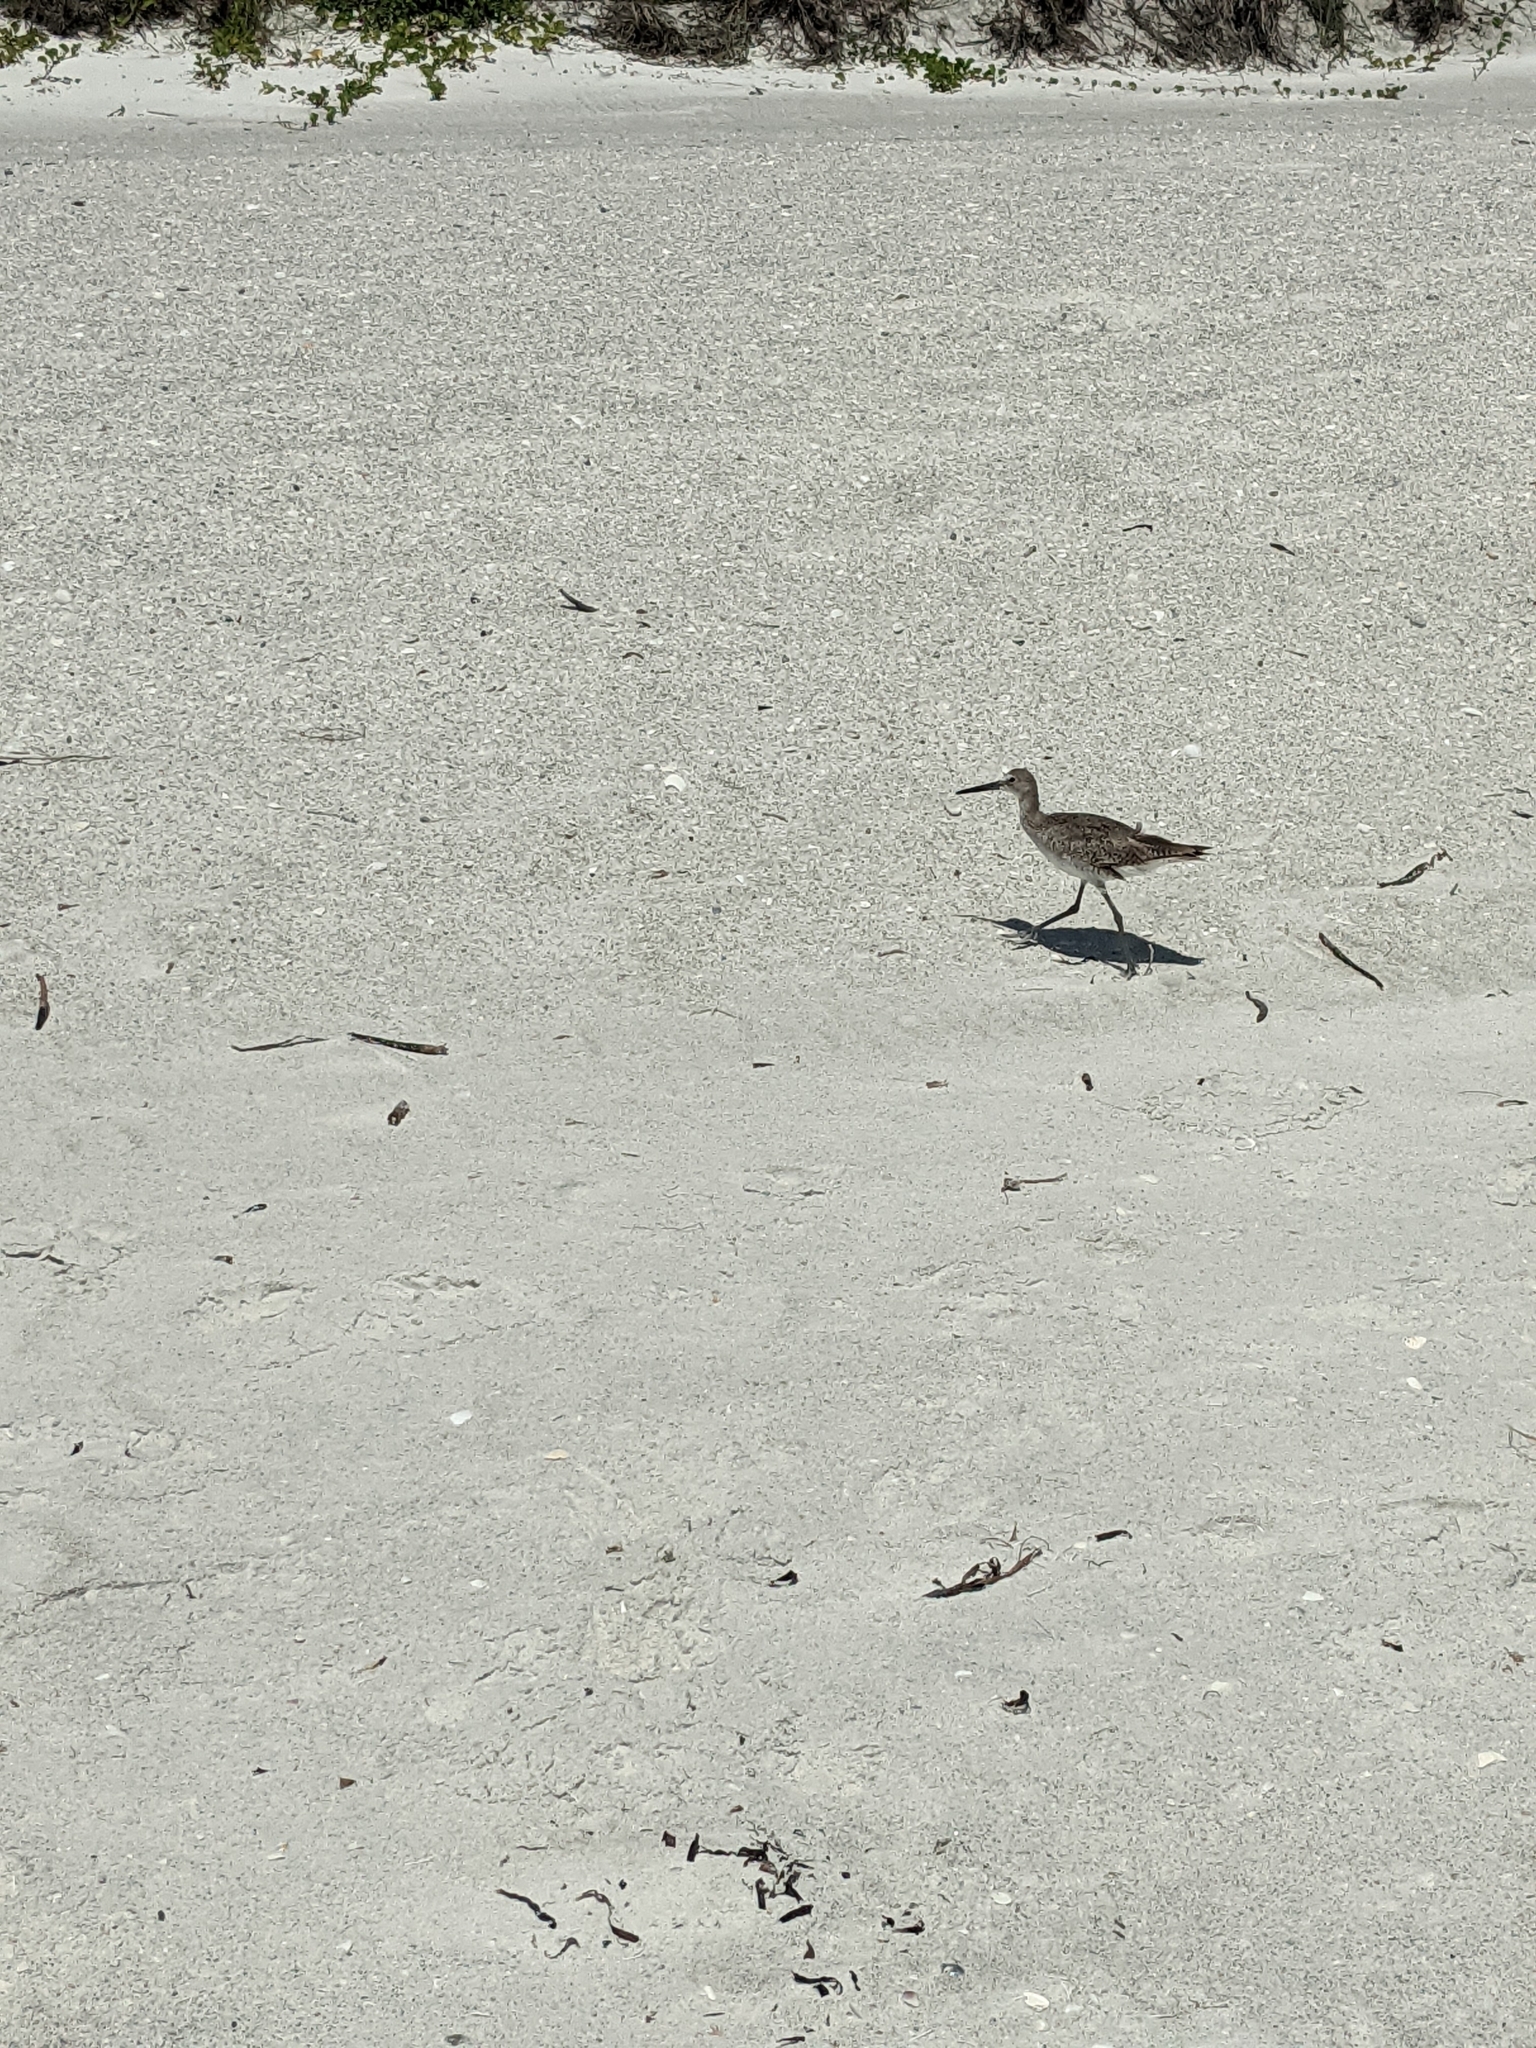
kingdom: Animalia
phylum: Chordata
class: Aves
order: Charadriiformes
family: Scolopacidae
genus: Tringa
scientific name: Tringa semipalmata
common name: Willet
